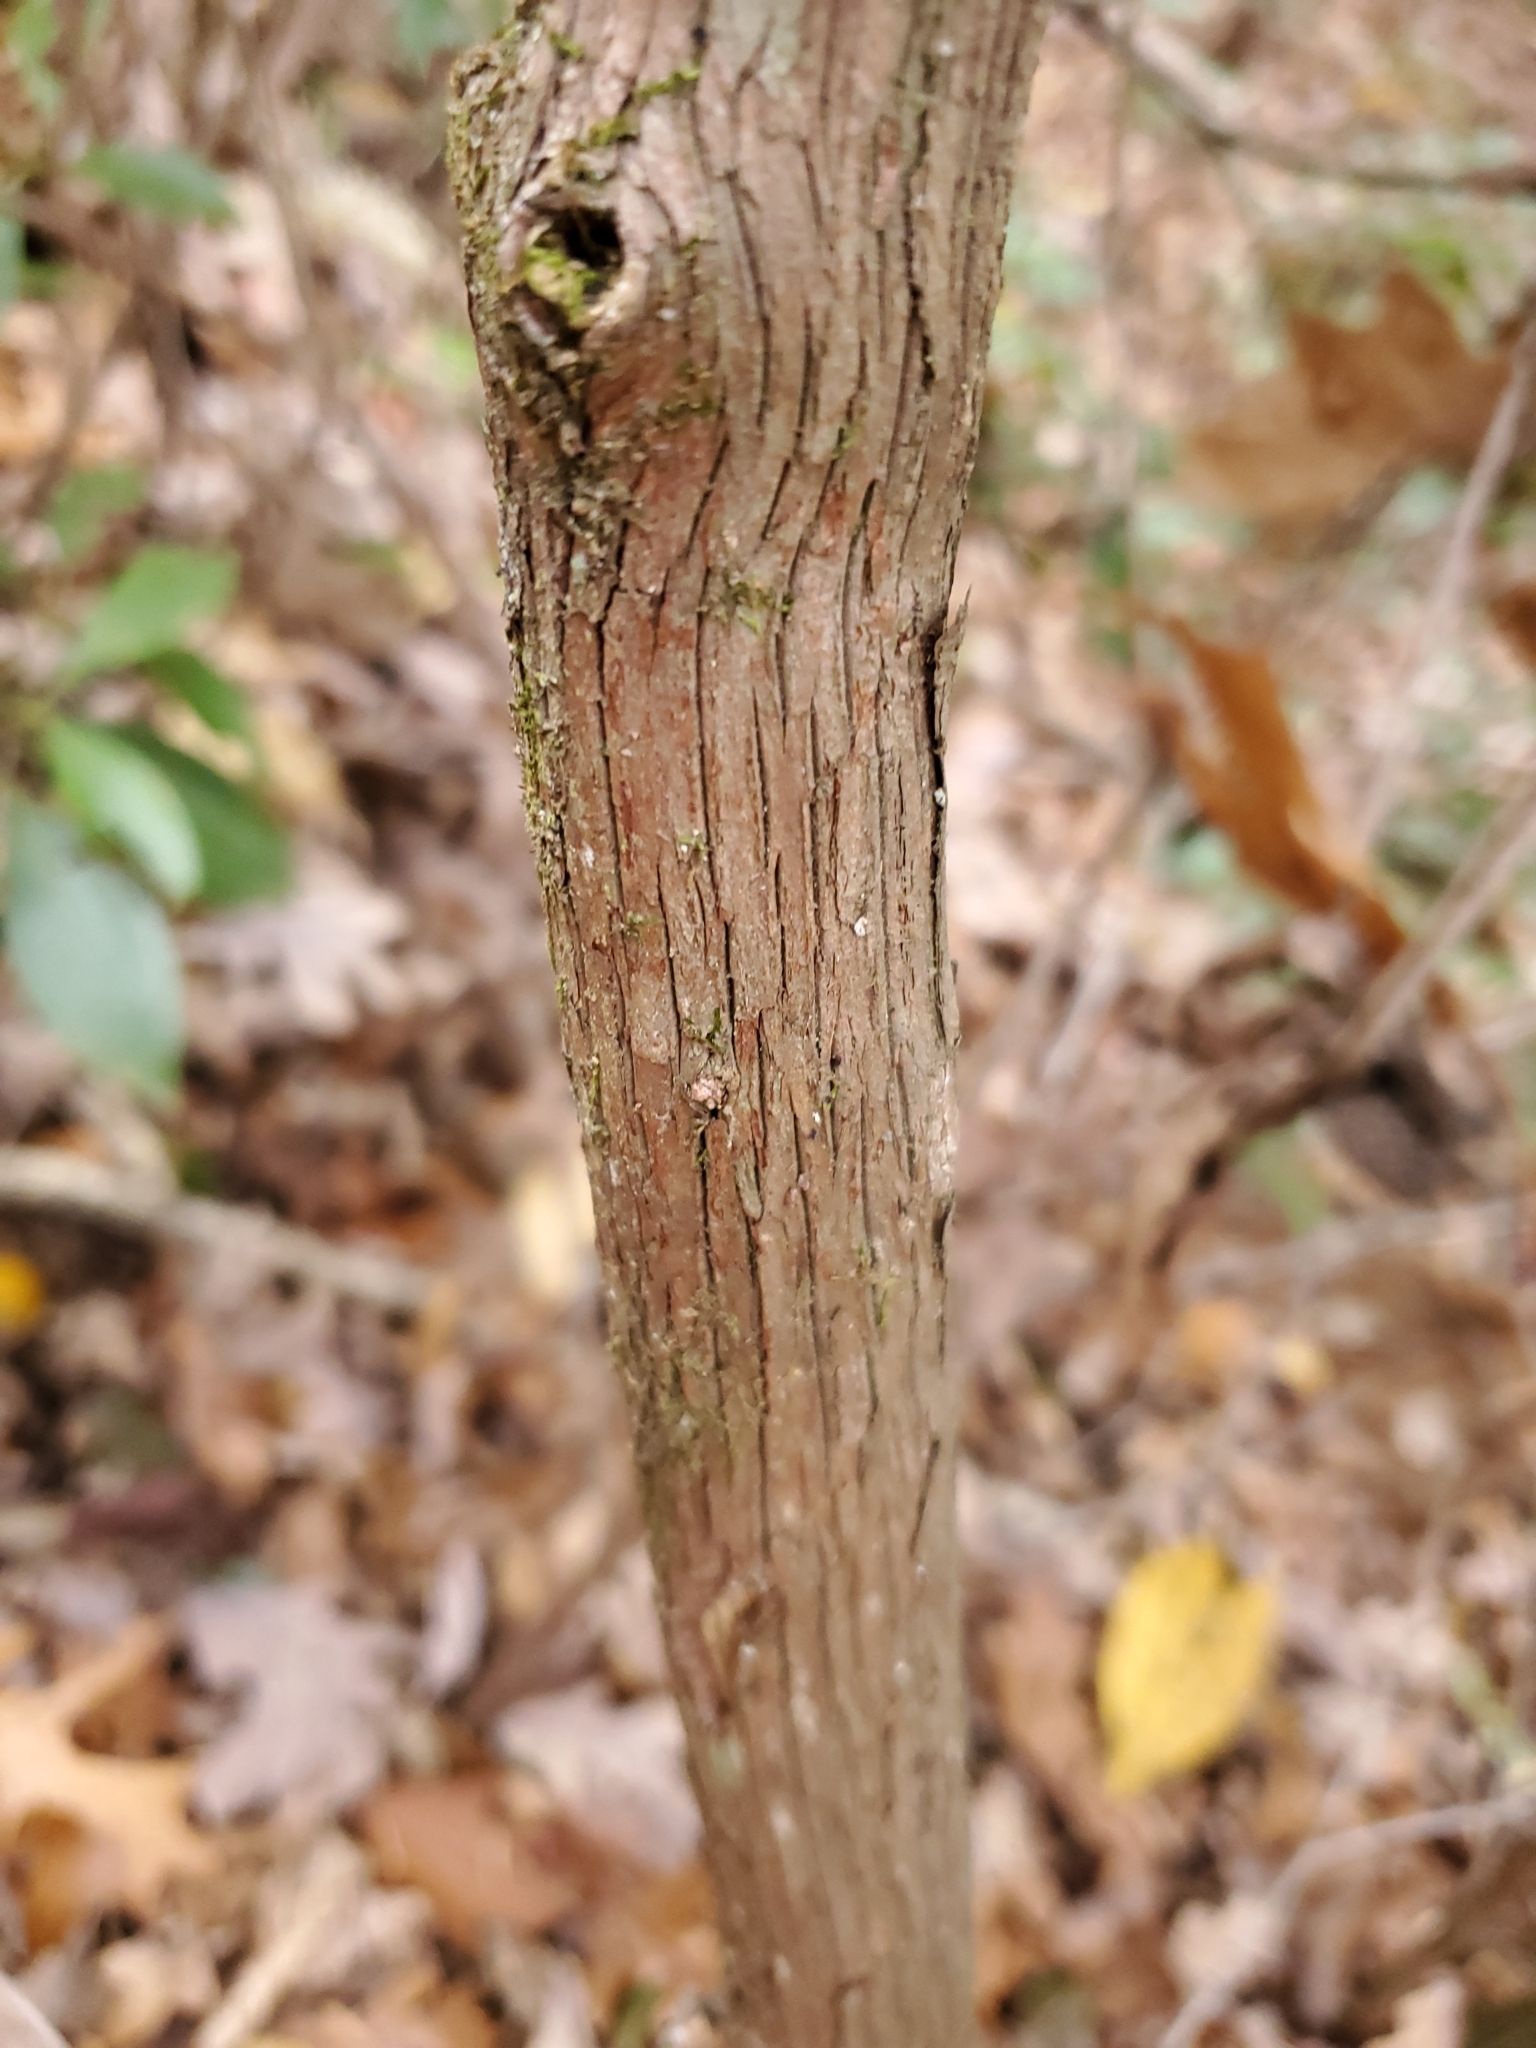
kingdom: Plantae
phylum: Tracheophyta
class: Magnoliopsida
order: Ericales
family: Ericaceae
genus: Kalmia
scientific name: Kalmia latifolia
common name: Mountain-laurel
